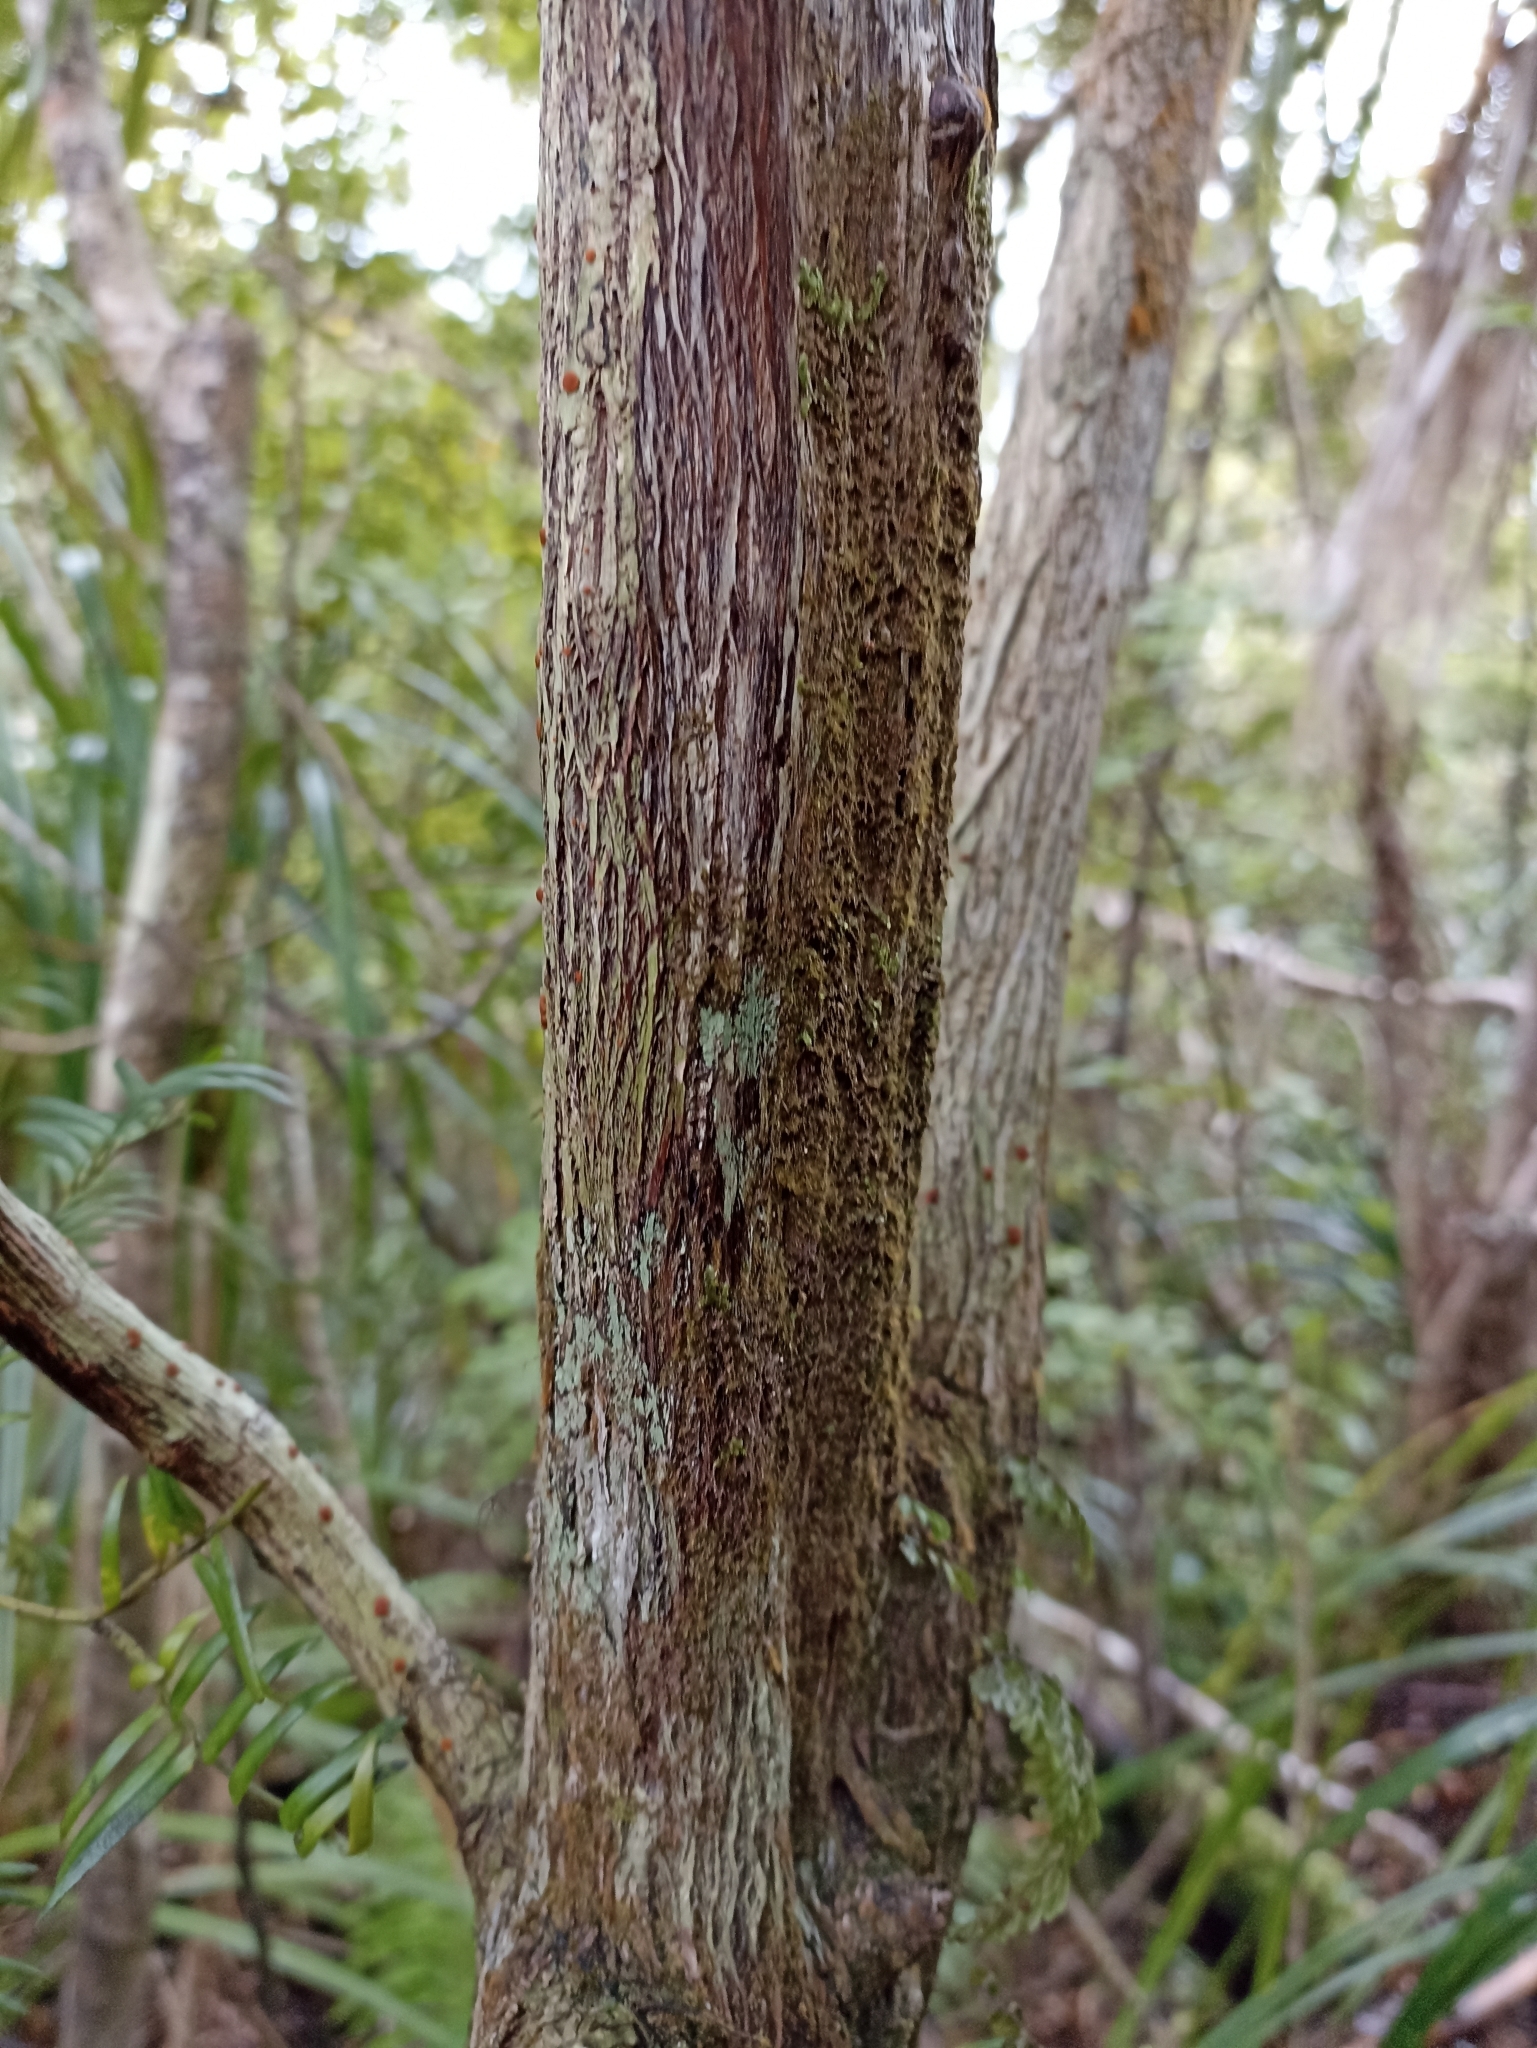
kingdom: Plantae
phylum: Tracheophyta
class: Magnoliopsida
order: Ericales
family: Ericaceae
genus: Dracophyllum
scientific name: Dracophyllum latifolium
